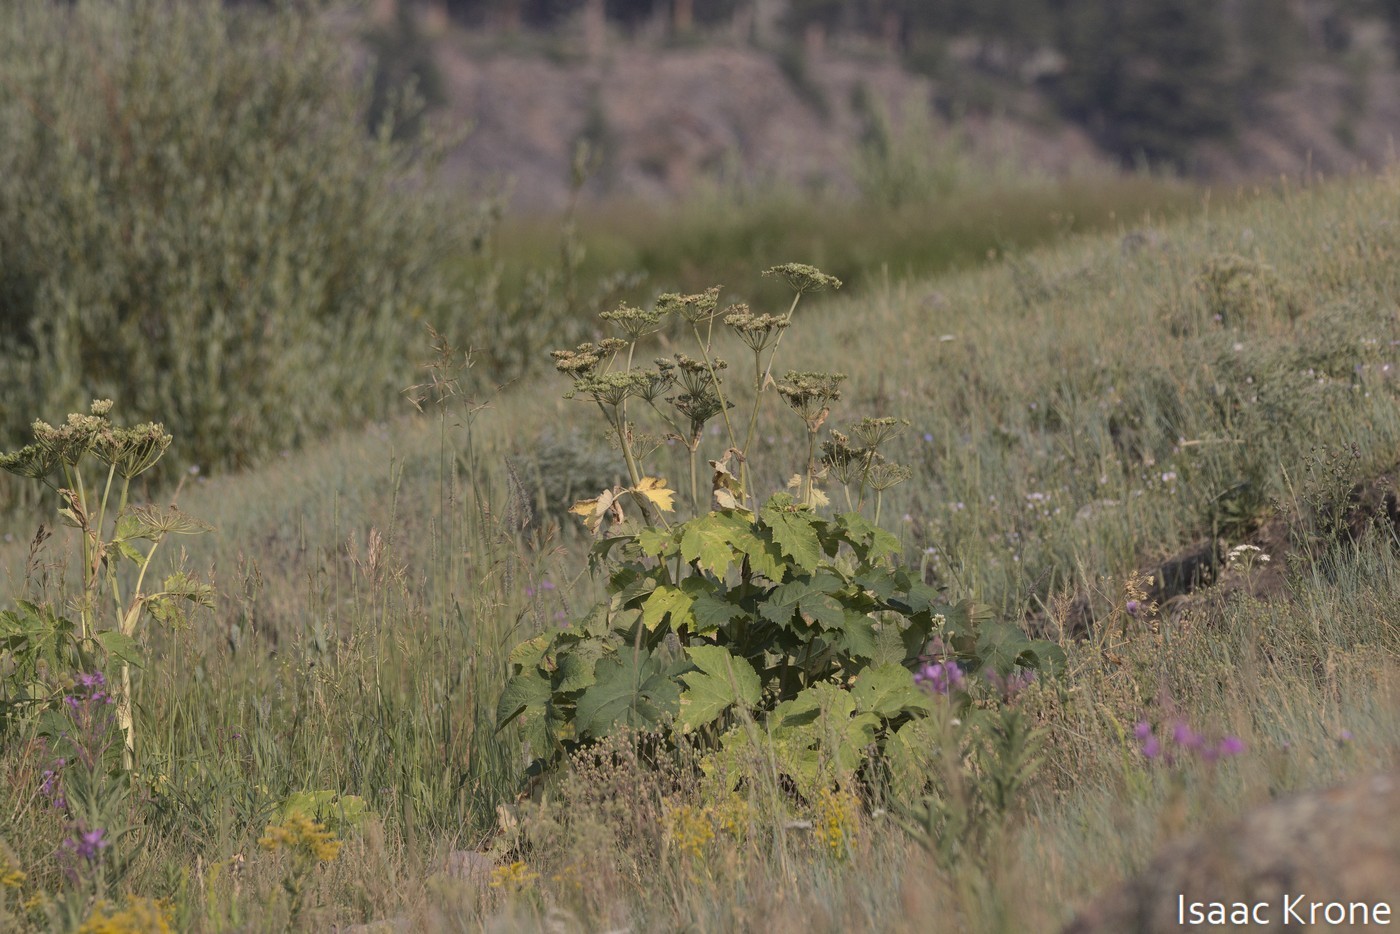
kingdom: Plantae
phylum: Tracheophyta
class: Magnoliopsida
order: Apiales
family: Apiaceae
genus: Heracleum
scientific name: Heracleum maximum
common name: American cow parsnip
